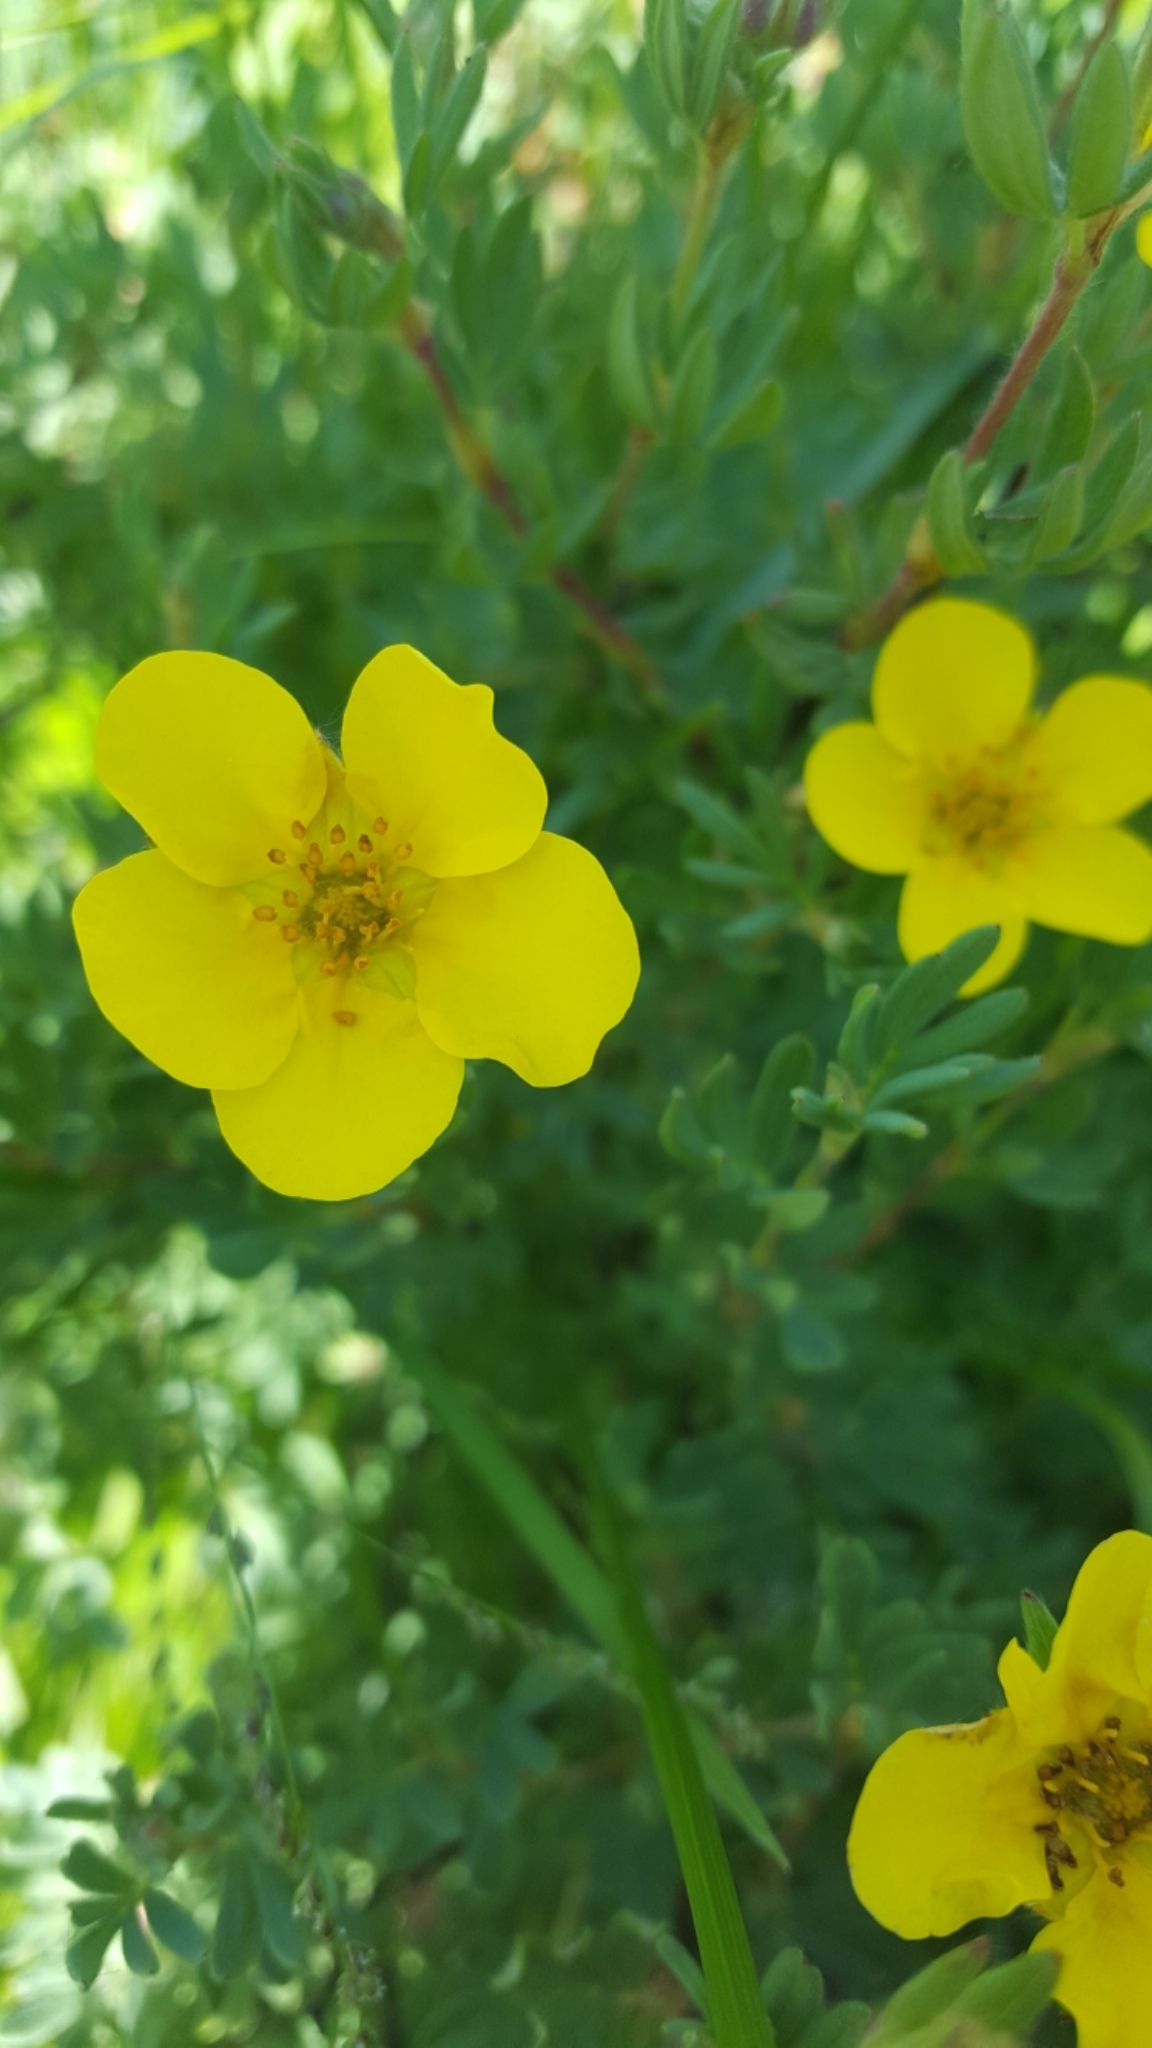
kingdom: Plantae
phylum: Tracheophyta
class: Magnoliopsida
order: Rosales
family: Rosaceae
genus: Dasiphora
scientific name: Dasiphora fruticosa
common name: Shrubby cinquefoil
